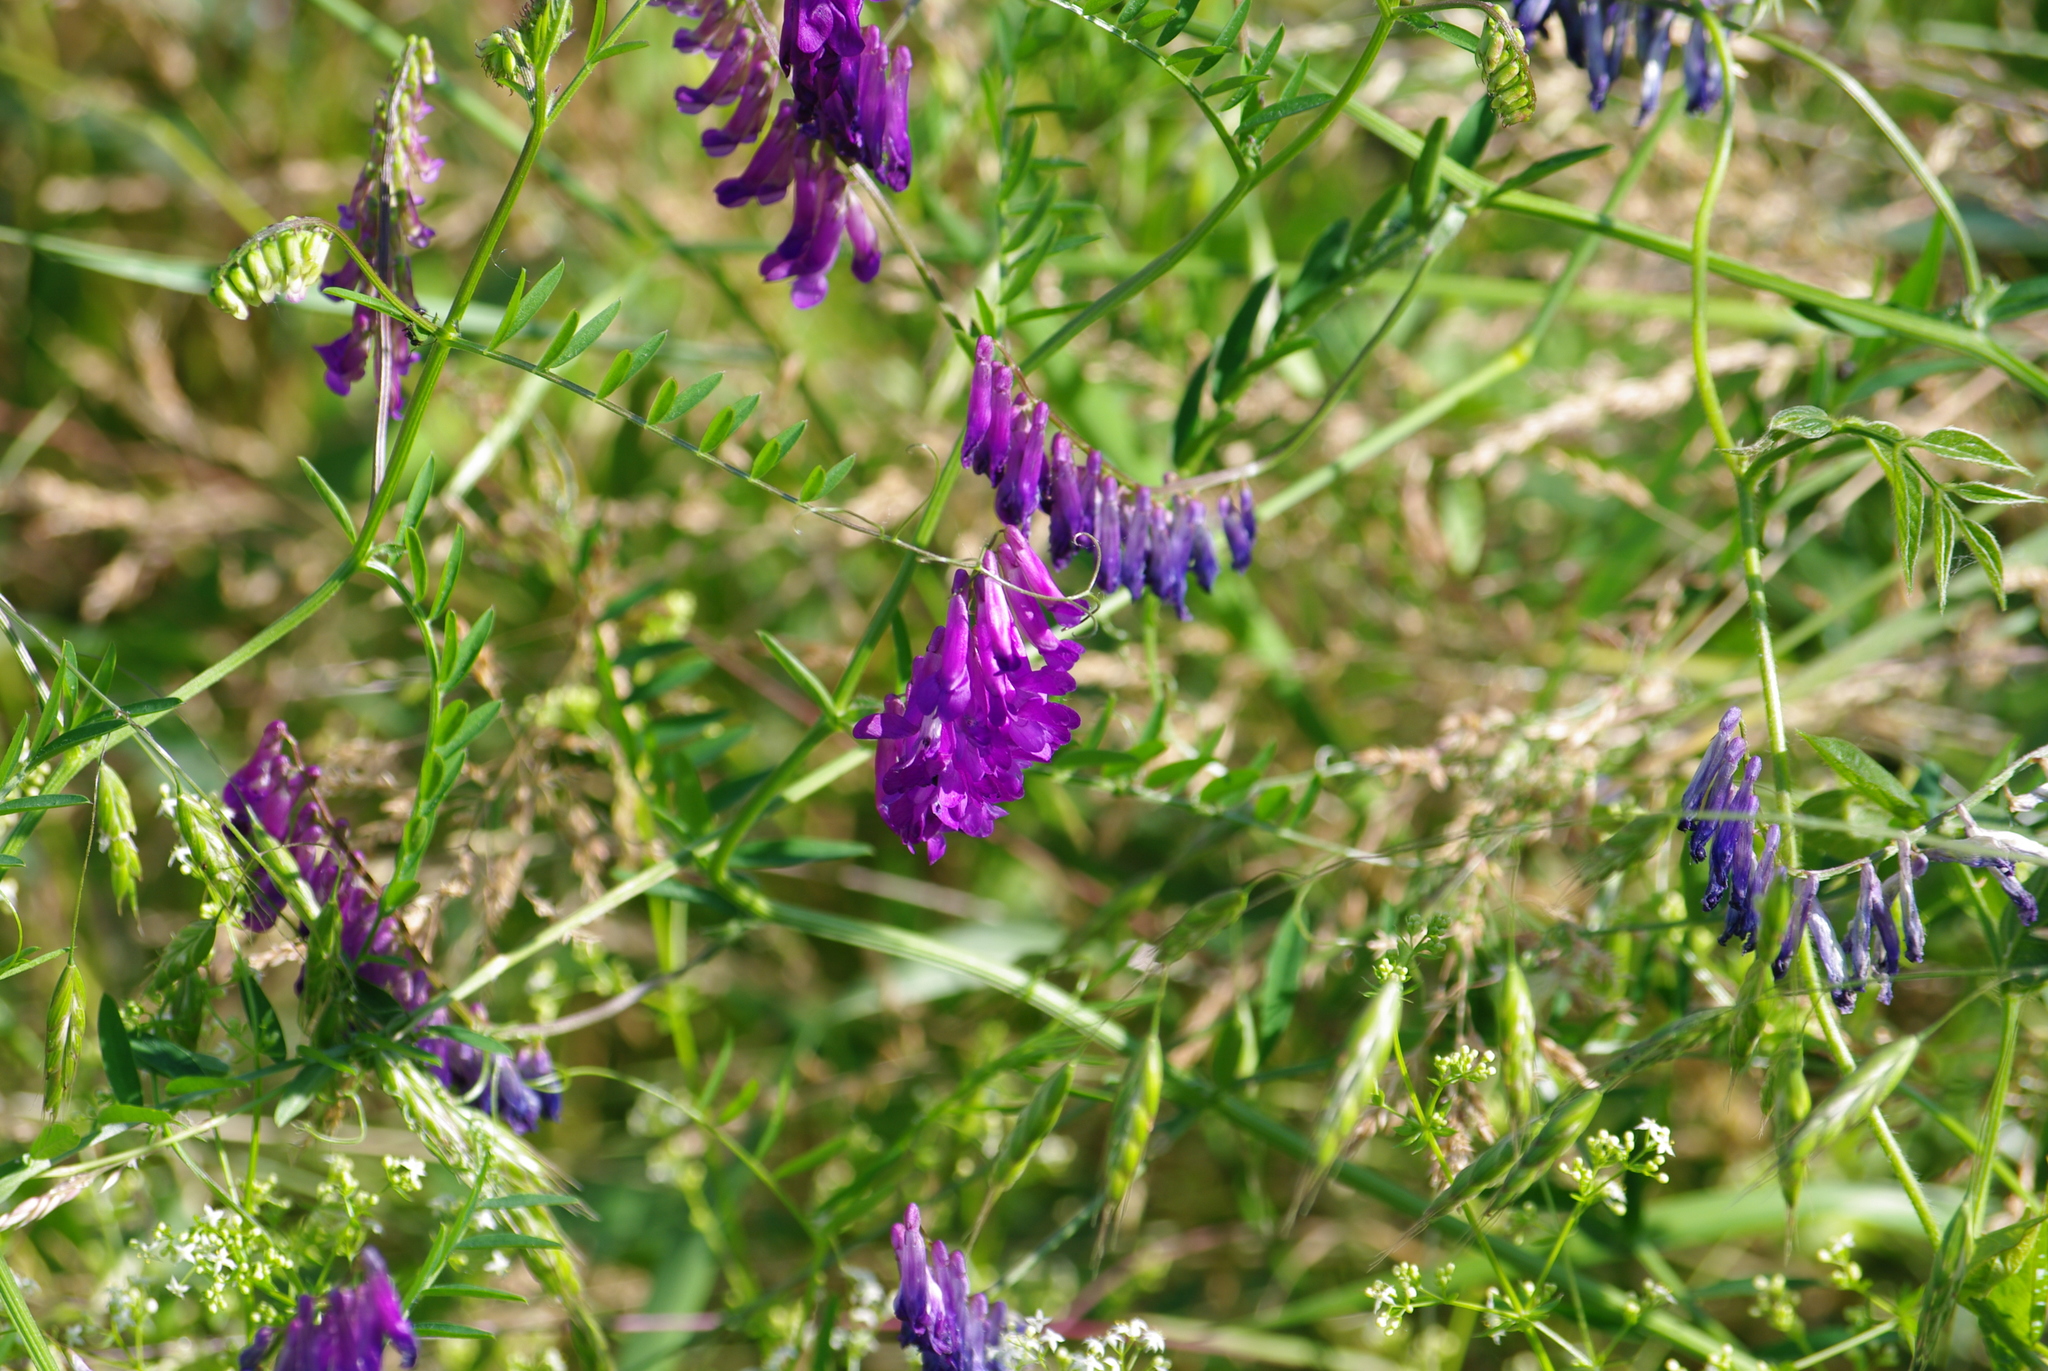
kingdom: Plantae
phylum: Tracheophyta
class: Magnoliopsida
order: Fabales
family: Fabaceae
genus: Vicia
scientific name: Vicia villosa
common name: Fodder vetch
